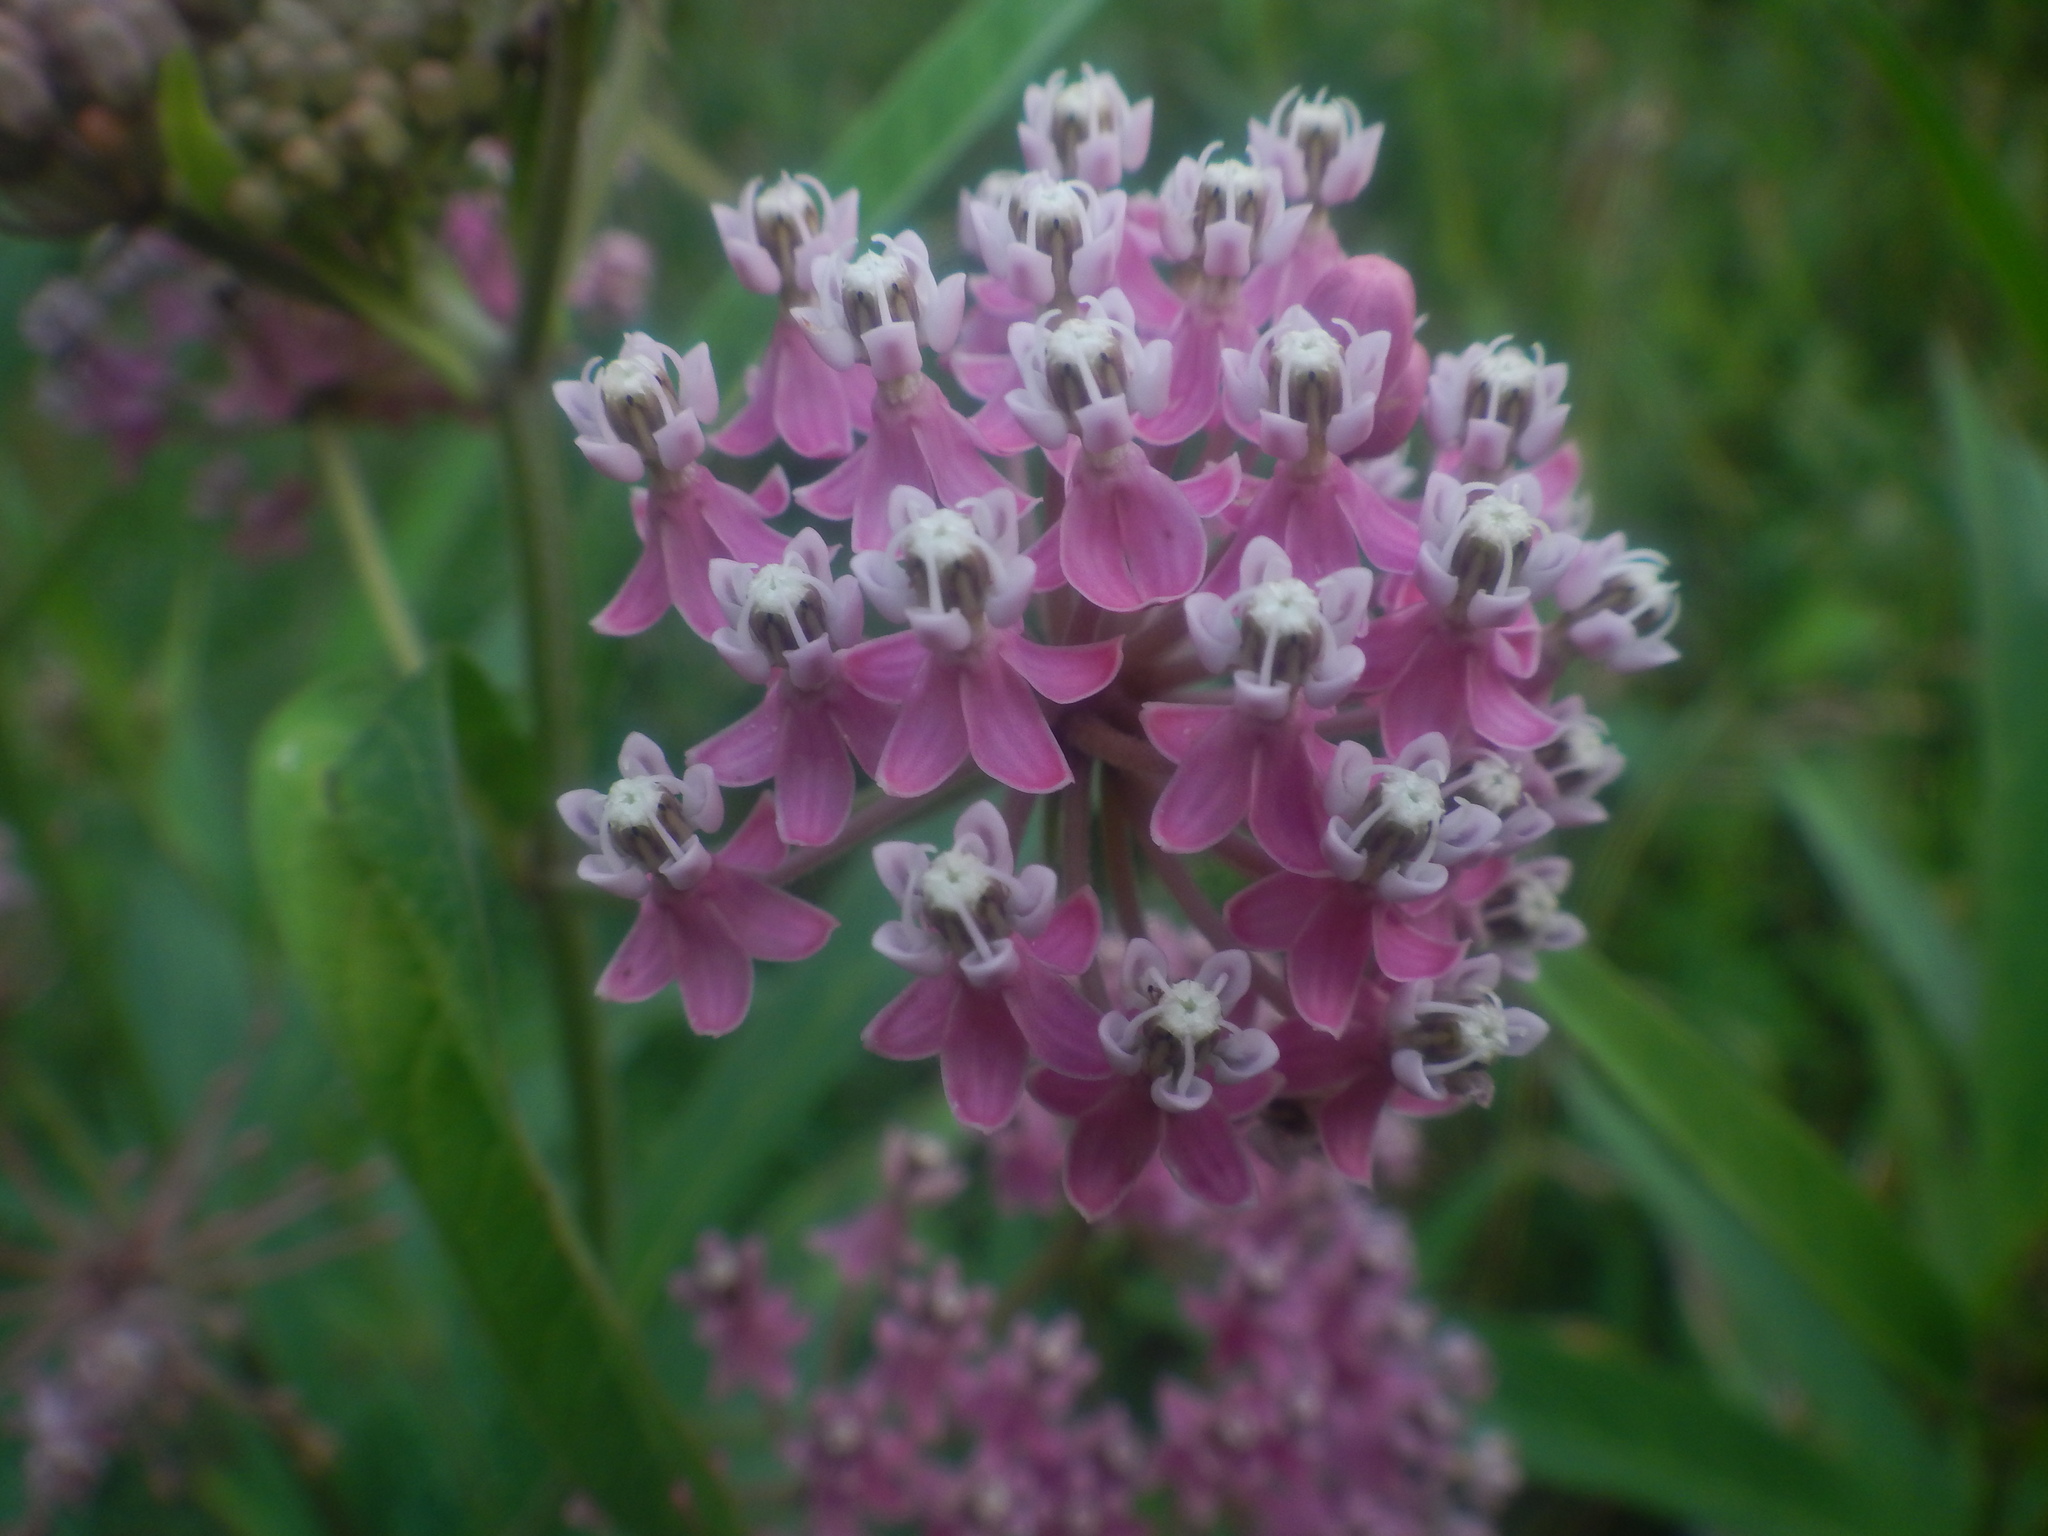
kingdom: Plantae
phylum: Tracheophyta
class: Magnoliopsida
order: Gentianales
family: Apocynaceae
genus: Asclepias
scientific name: Asclepias incarnata
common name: Swamp milkweed
